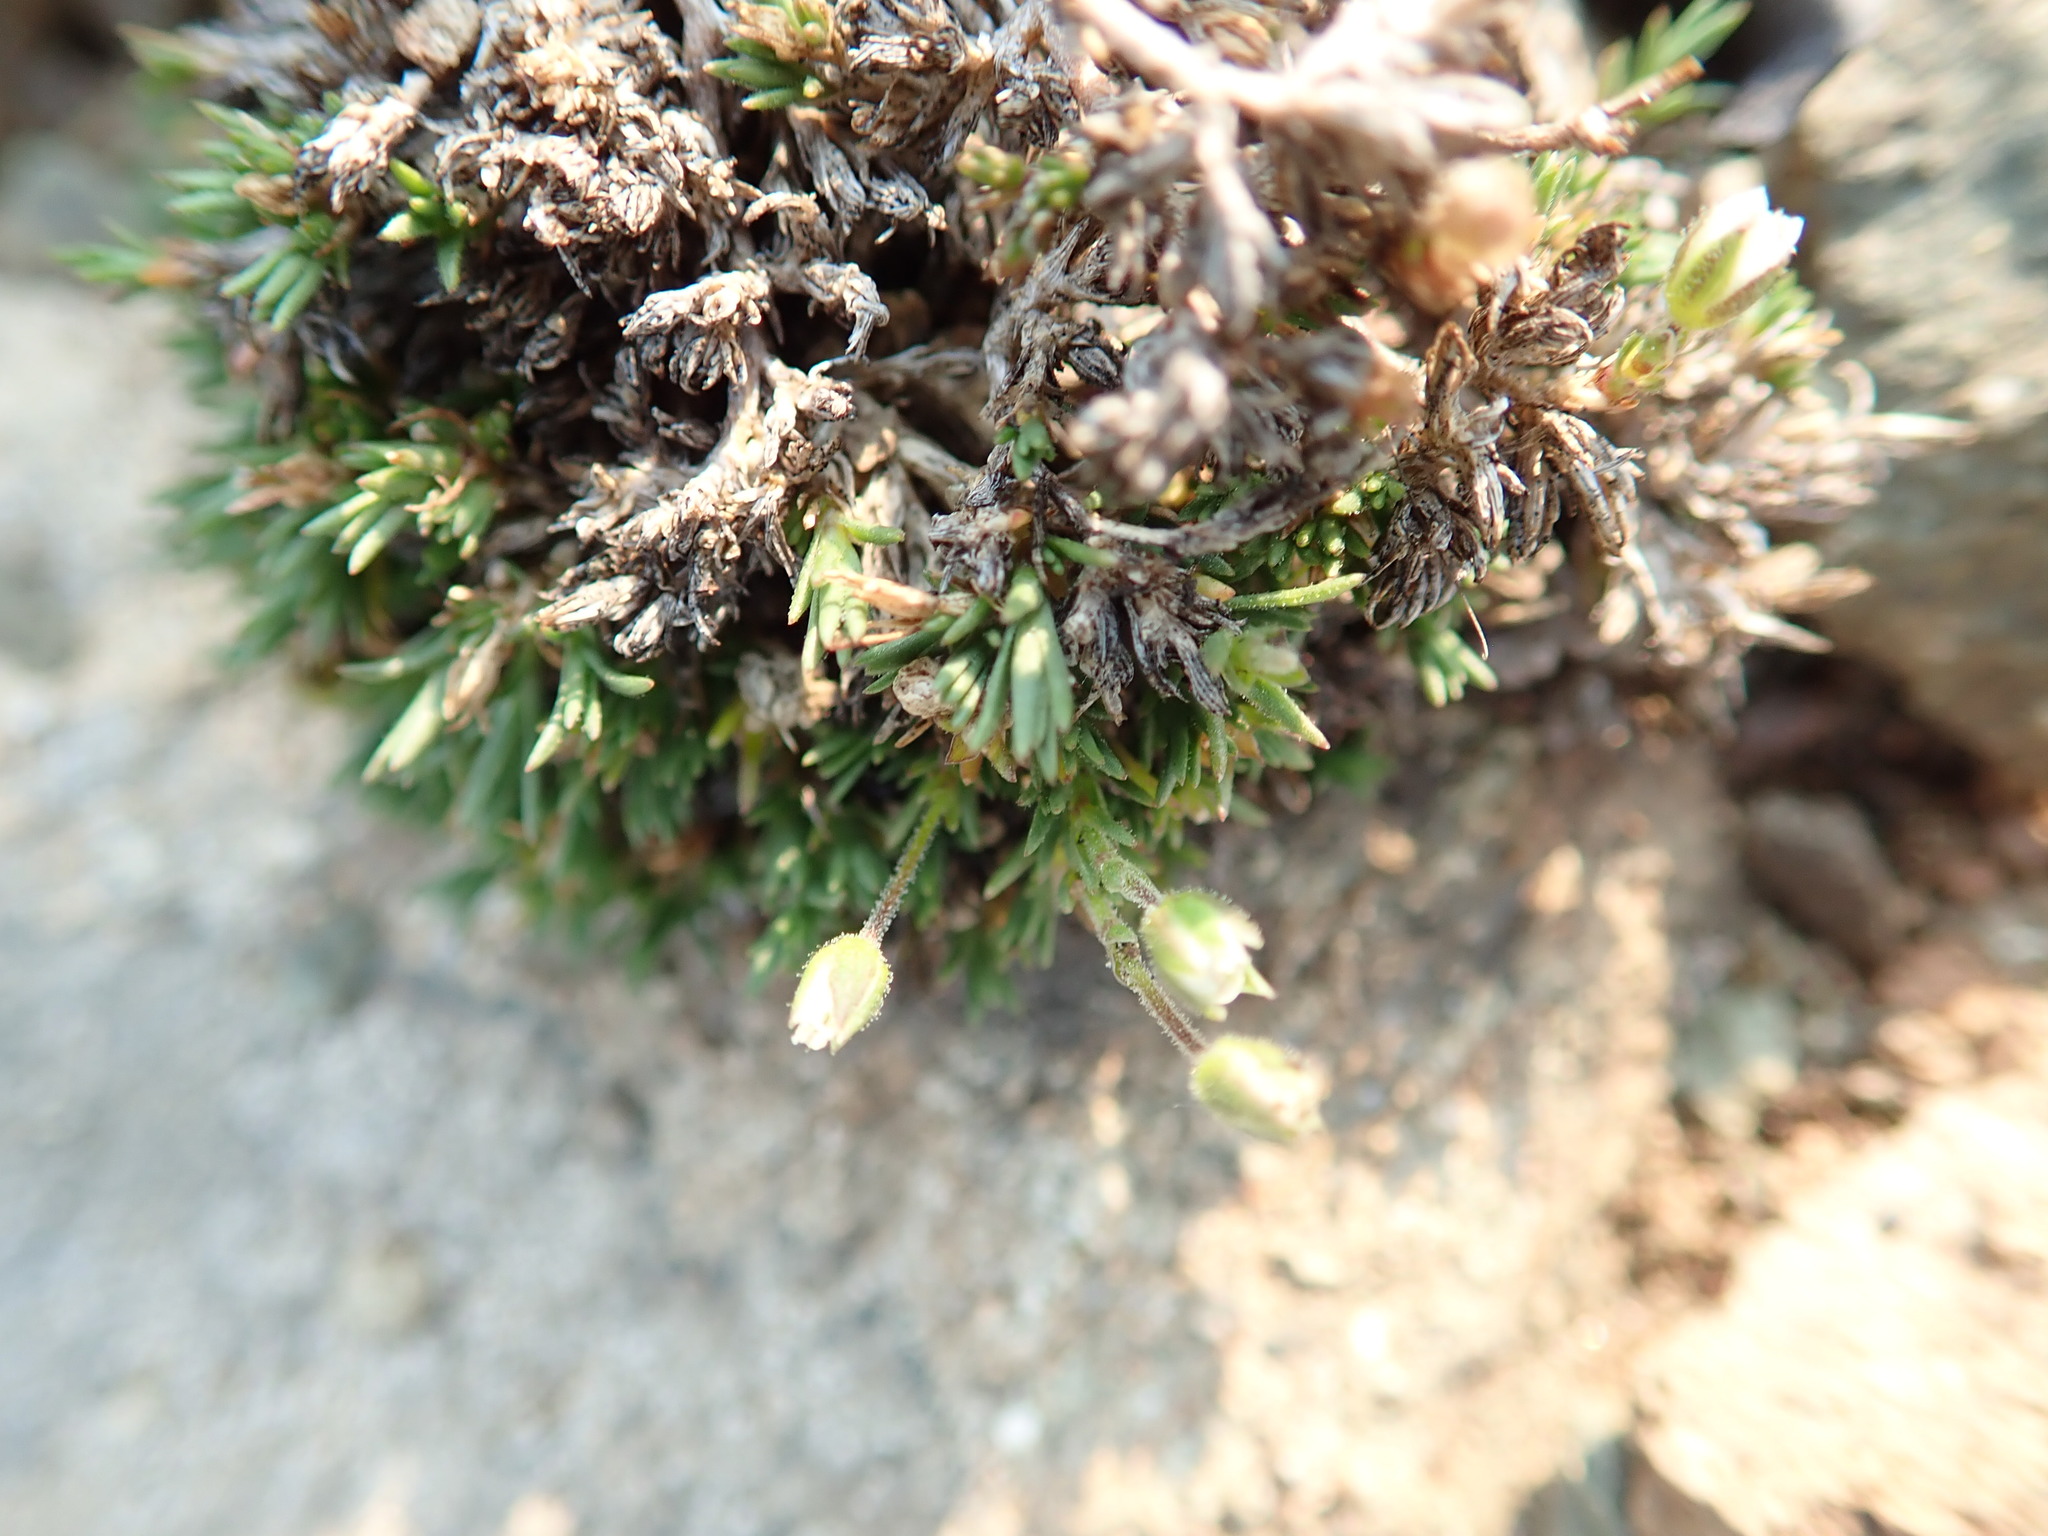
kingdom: Plantae
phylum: Tracheophyta
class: Magnoliopsida
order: Caryophyllales
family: Caryophyllaceae
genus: Pseudocherleria
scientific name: Pseudocherleria macrocarpa
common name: Large-fruit sandwort
